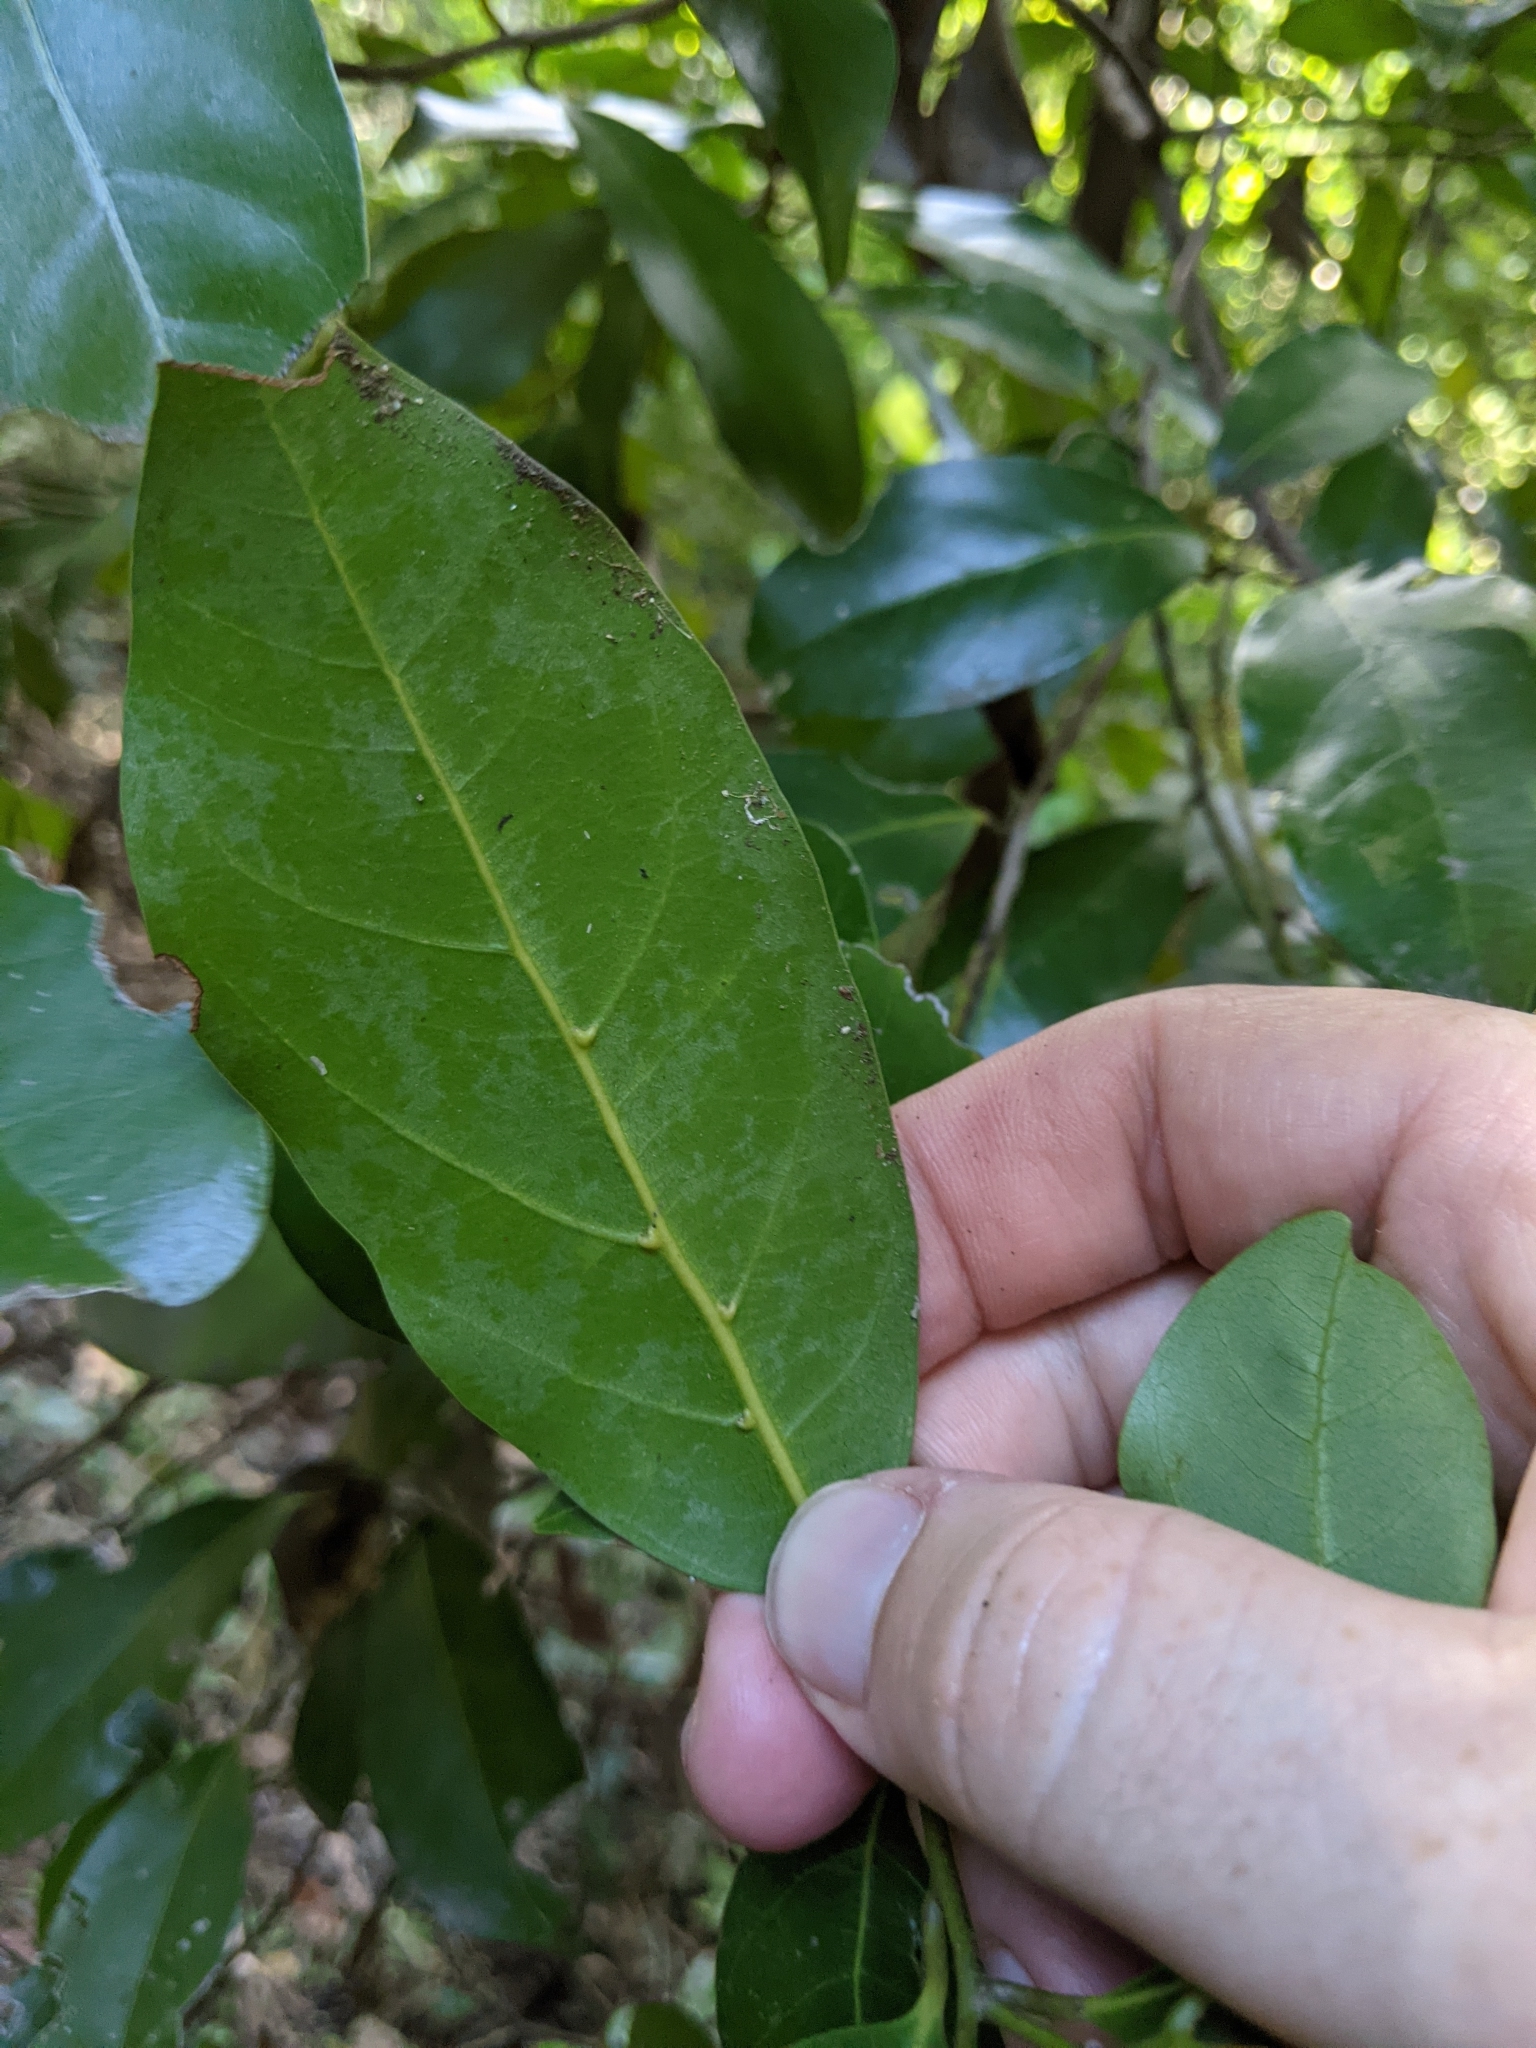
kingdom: Plantae
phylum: Tracheophyta
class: Magnoliopsida
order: Laurales
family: Lauraceae
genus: Endiandra
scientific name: Endiandra discolor
